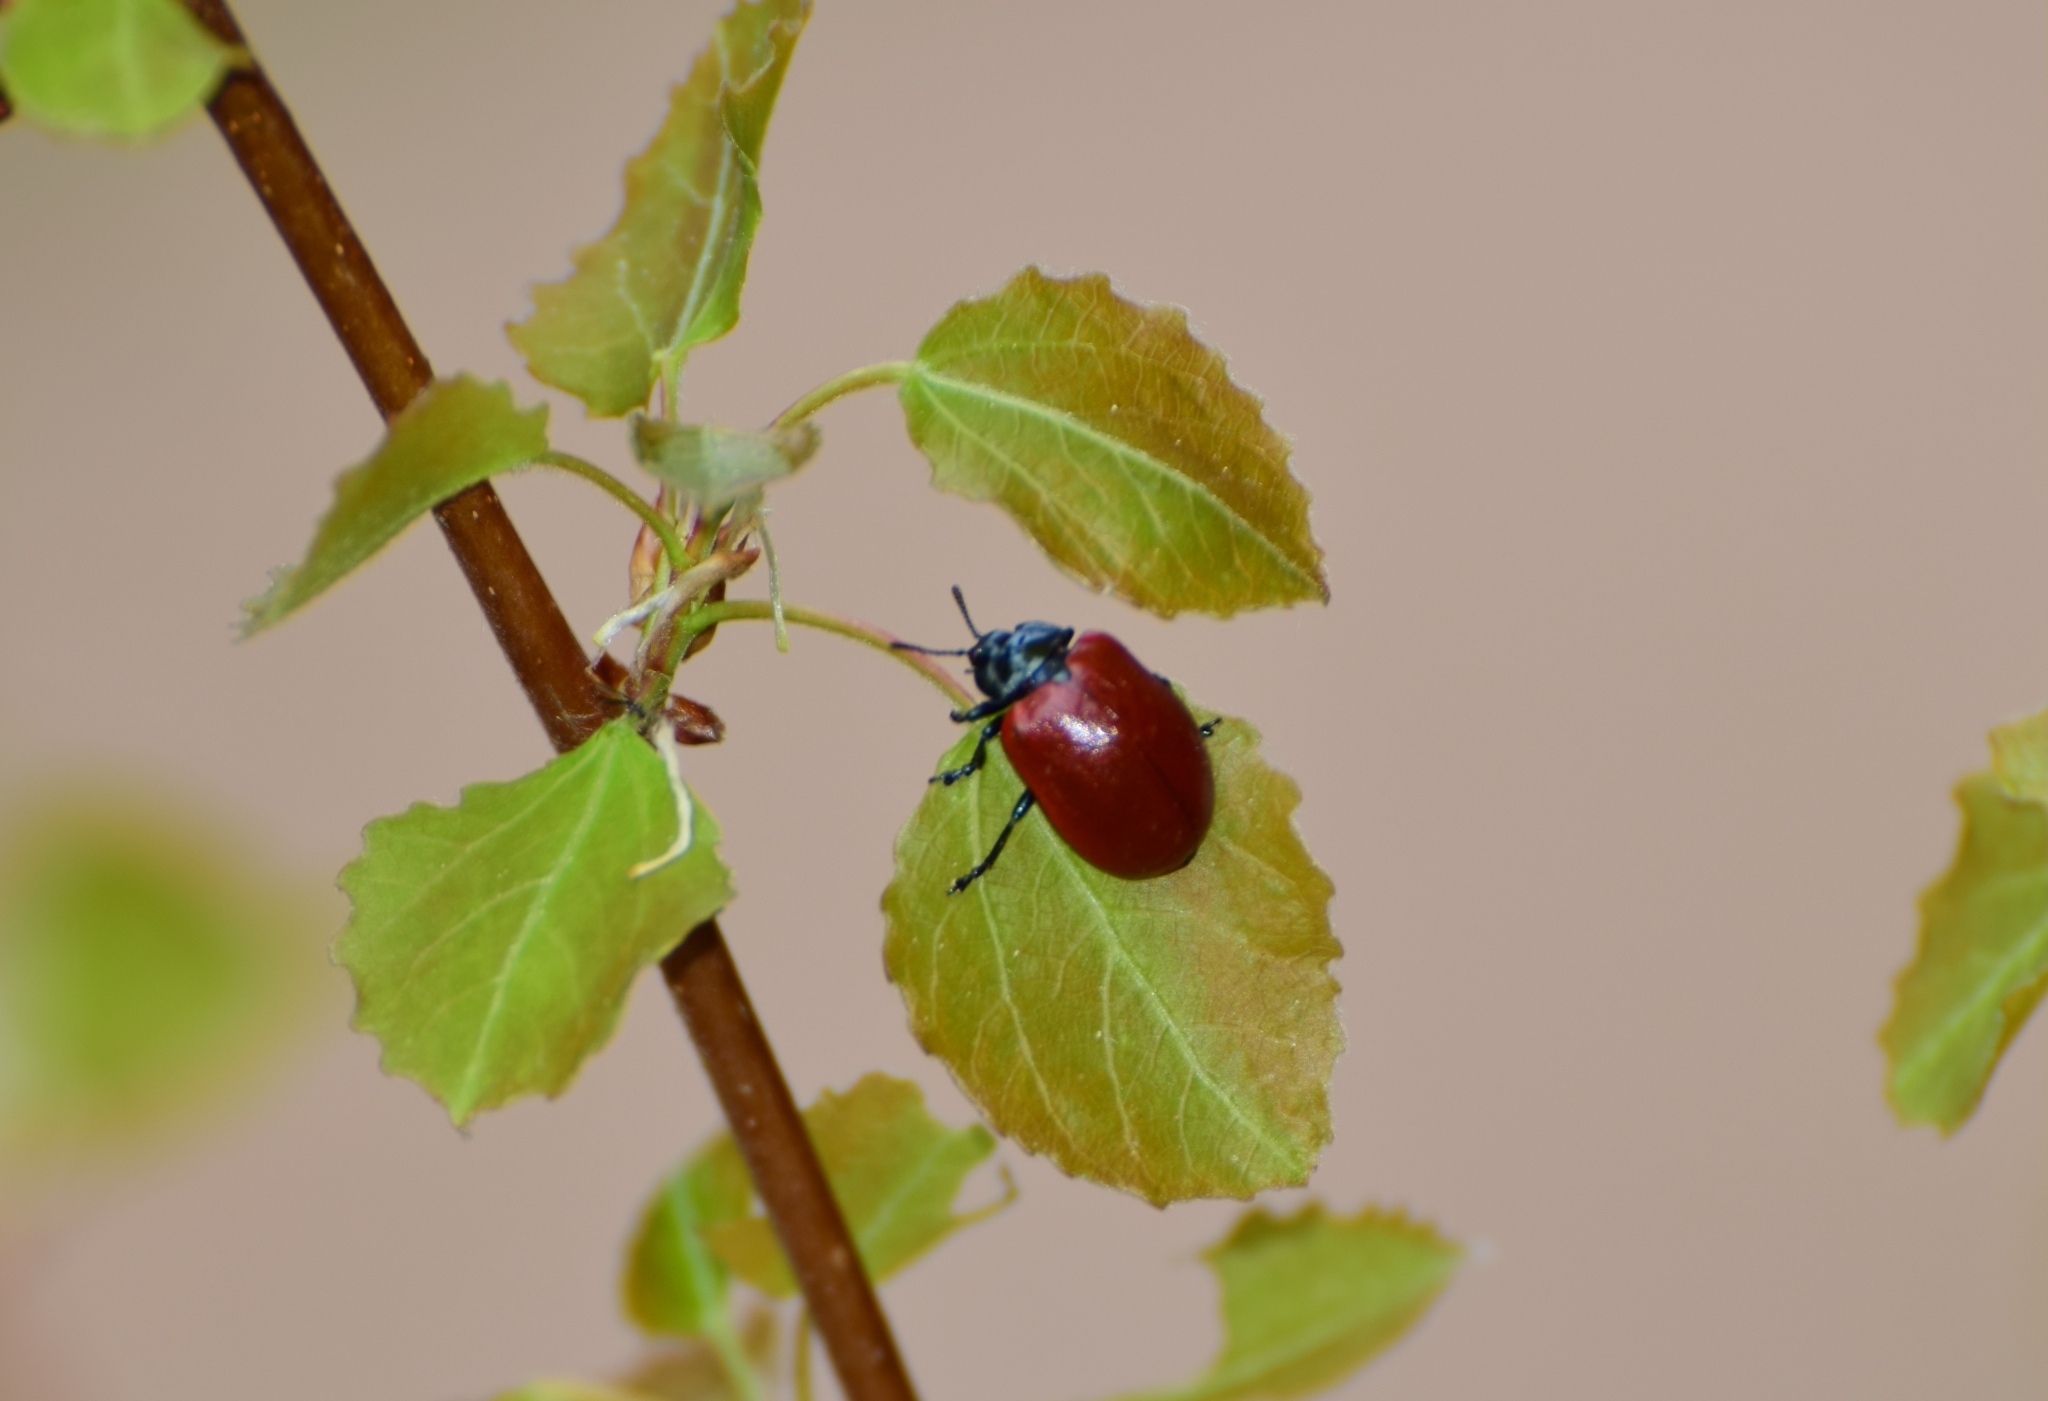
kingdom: Animalia
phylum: Arthropoda
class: Insecta
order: Coleoptera
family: Chrysomelidae
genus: Chrysomela
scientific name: Chrysomela populi
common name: Red poplar leaf beetle
